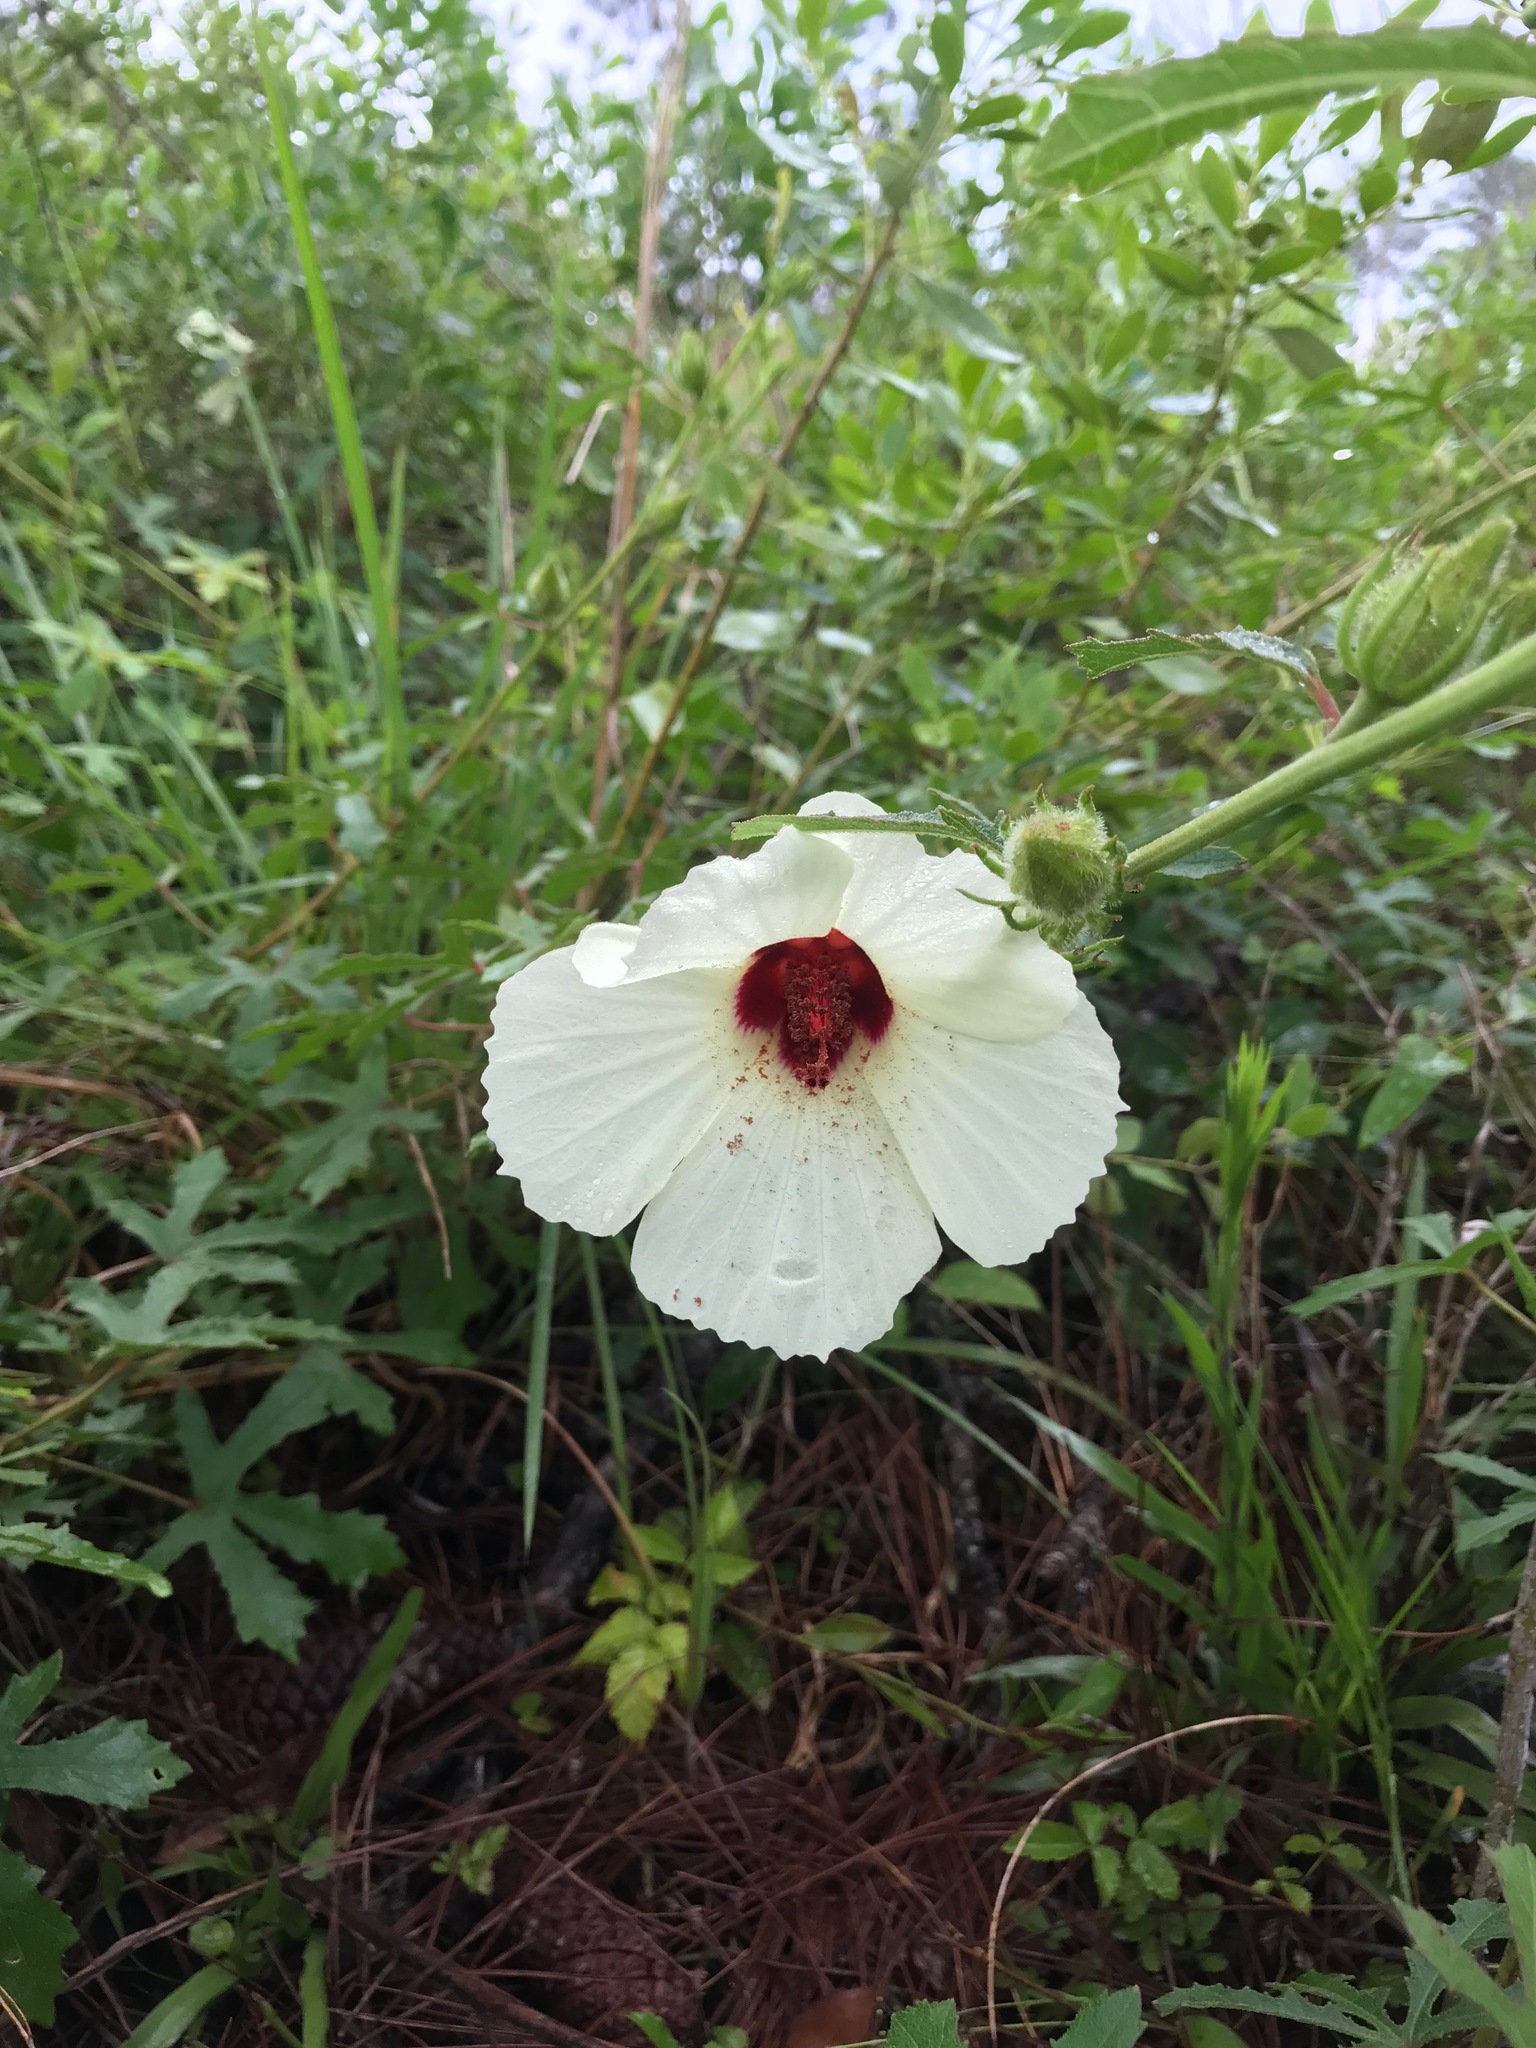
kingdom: Plantae
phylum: Tracheophyta
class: Magnoliopsida
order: Malvales
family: Malvaceae
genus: Hibiscus
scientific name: Hibiscus aculeatus
